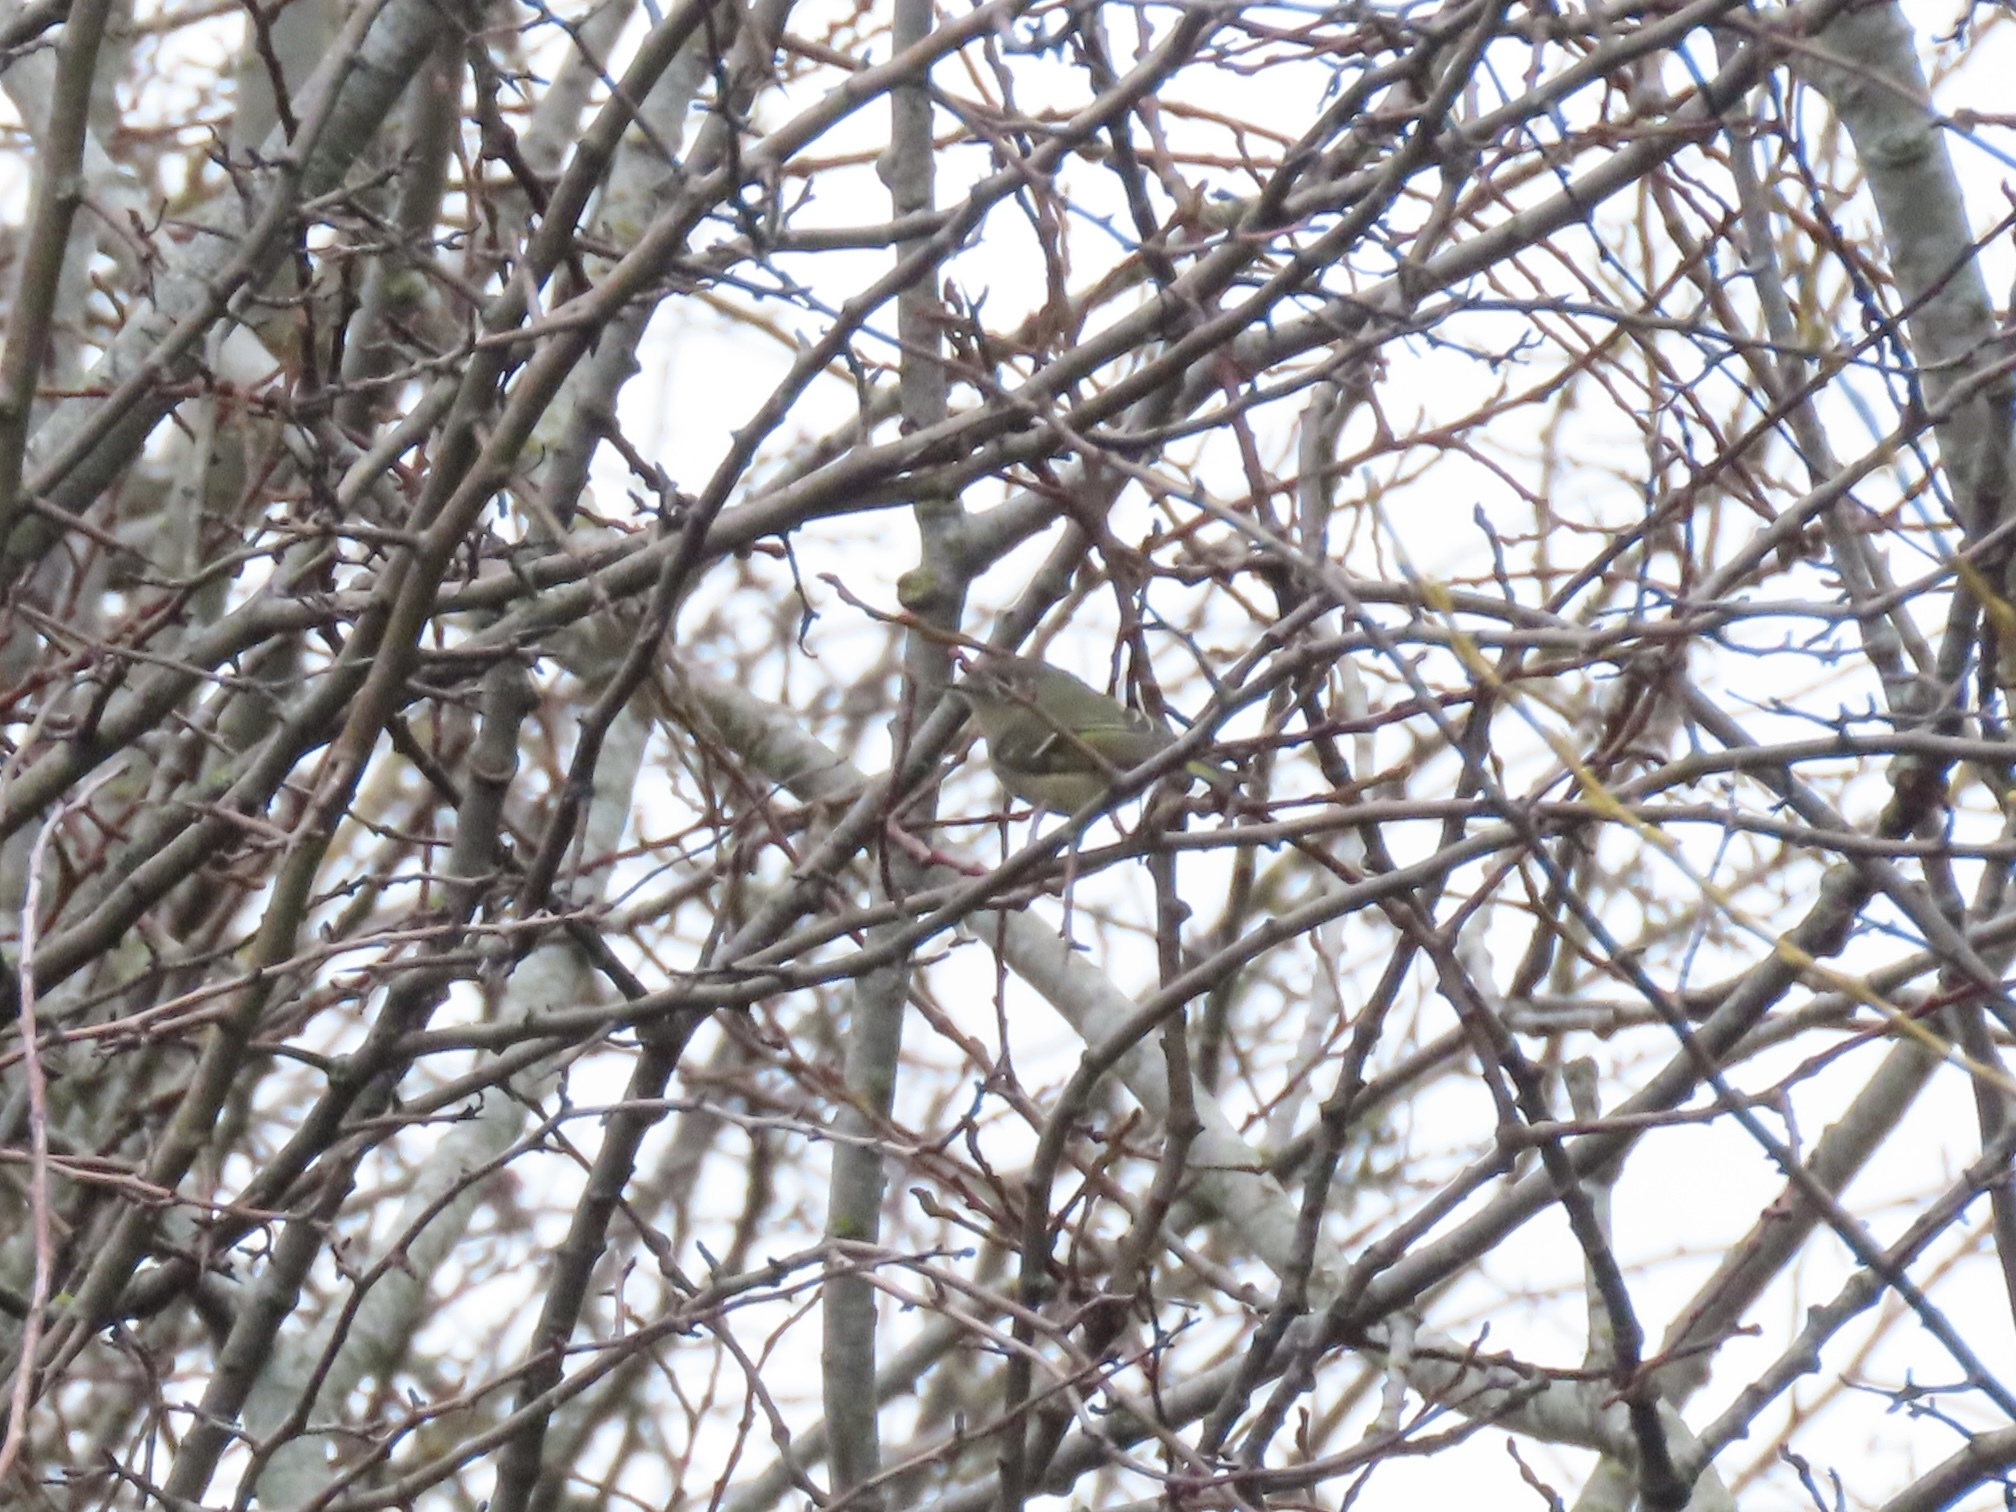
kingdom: Animalia
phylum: Chordata
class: Aves
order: Passeriformes
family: Regulidae
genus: Regulus
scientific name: Regulus calendula
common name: Ruby-crowned kinglet
